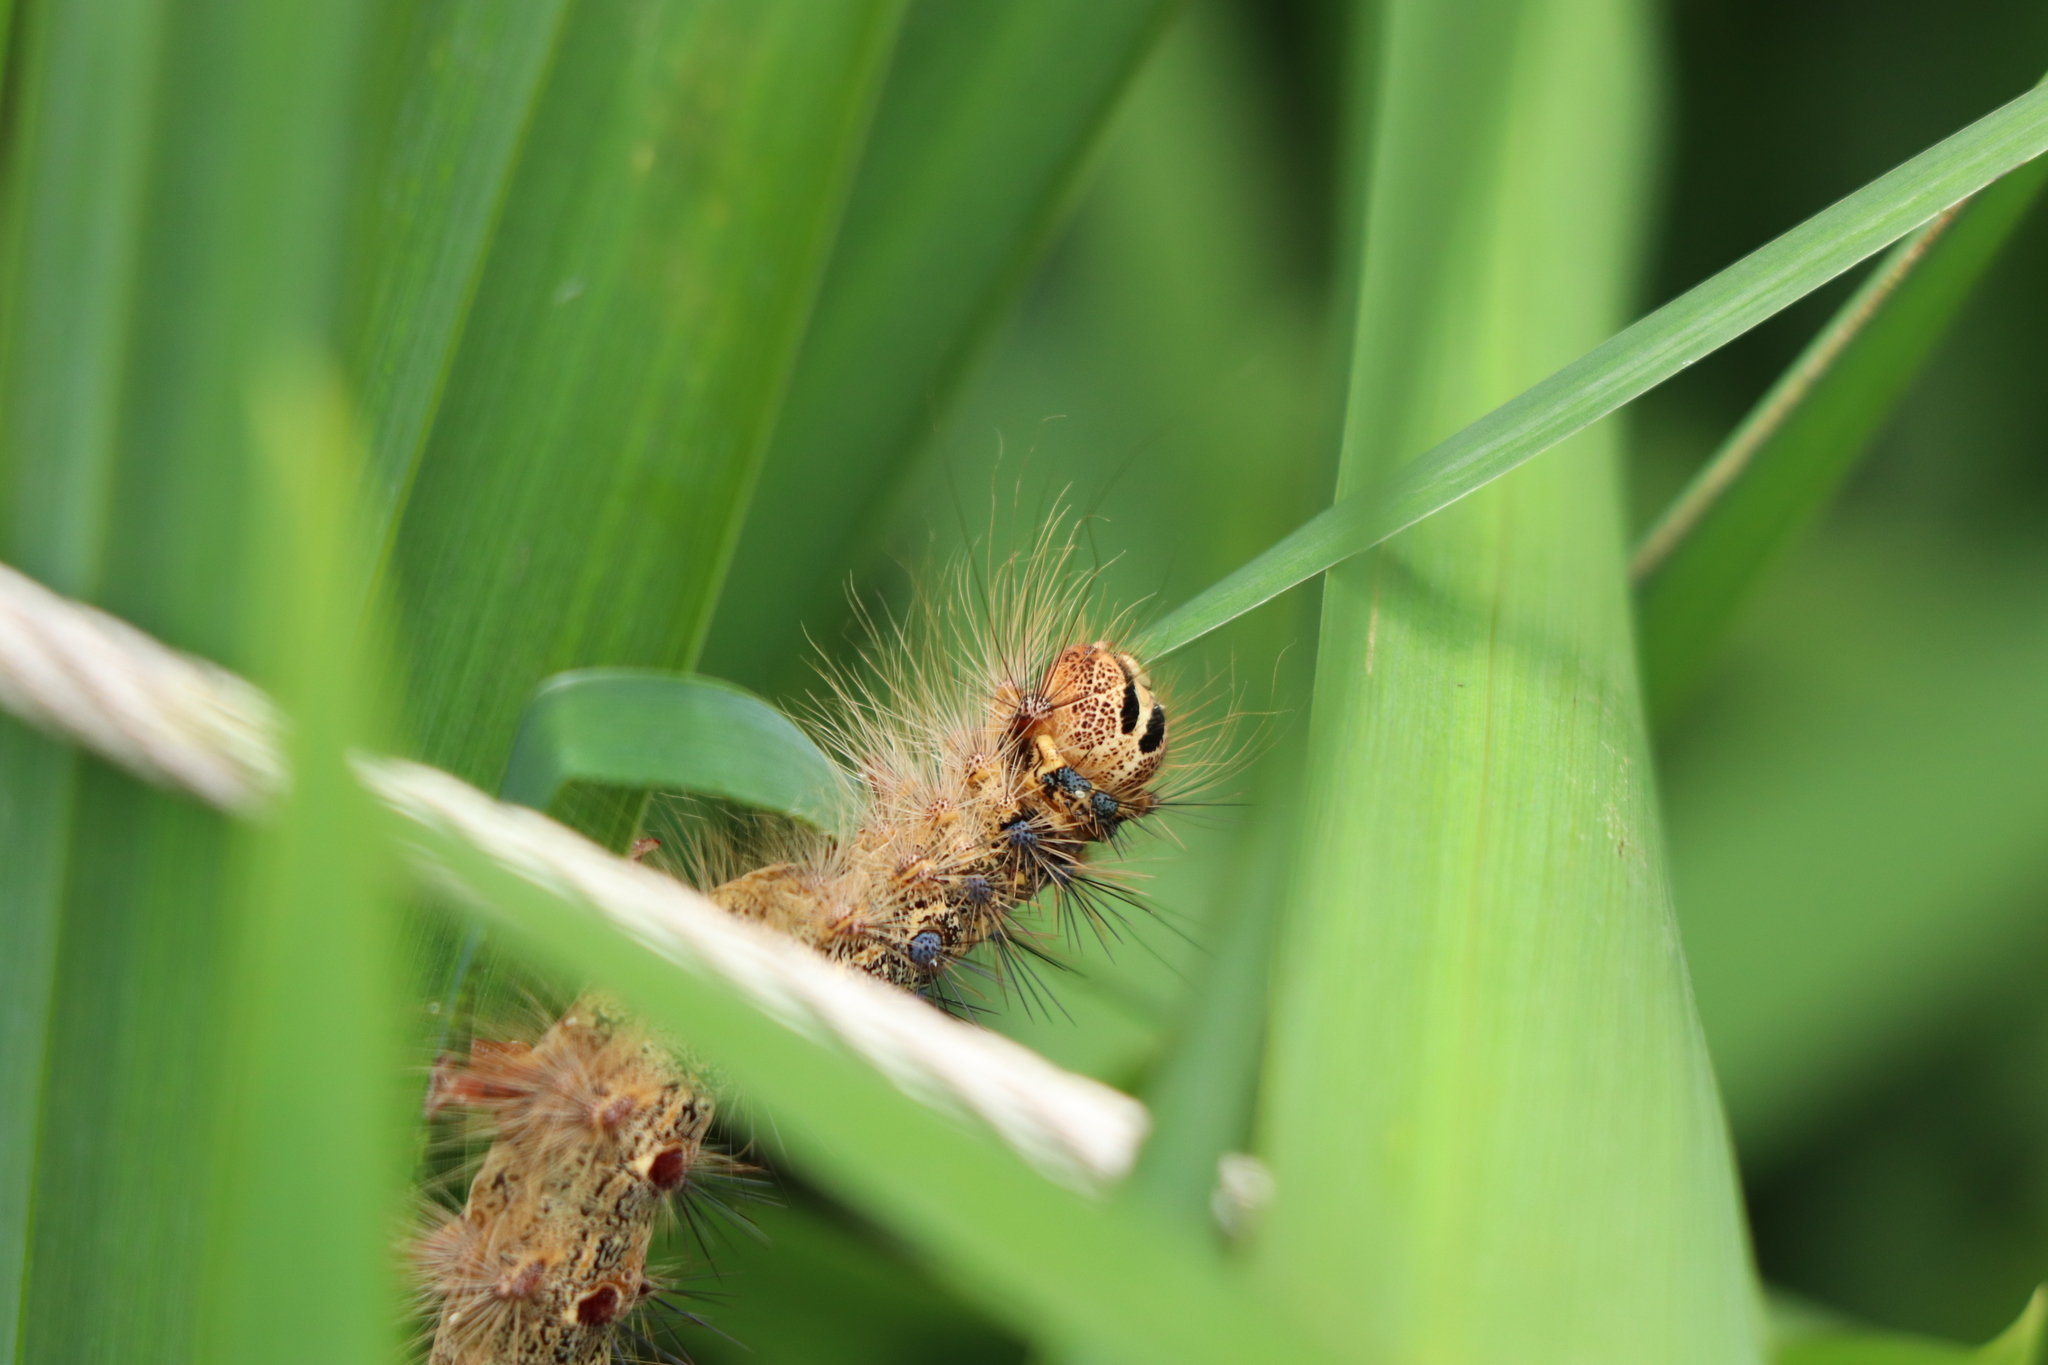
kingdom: Animalia
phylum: Arthropoda
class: Insecta
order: Lepidoptera
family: Erebidae
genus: Lymantria
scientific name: Lymantria dispar
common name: Gypsy moth
